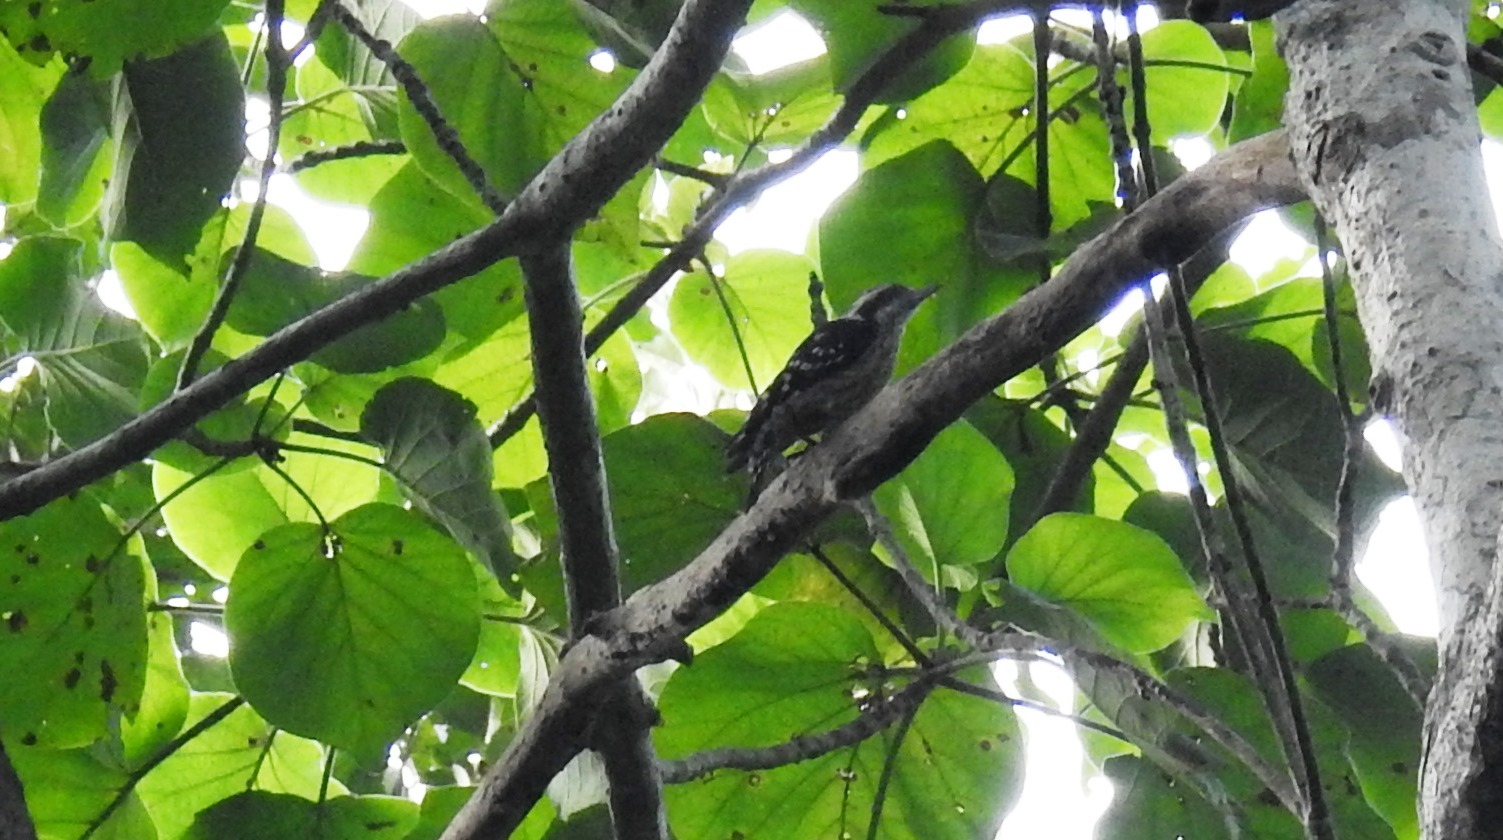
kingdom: Animalia
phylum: Chordata
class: Aves
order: Piciformes
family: Picidae
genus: Yungipicus
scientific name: Yungipicus nanus
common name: Brown-capped pygmy woodpecker
